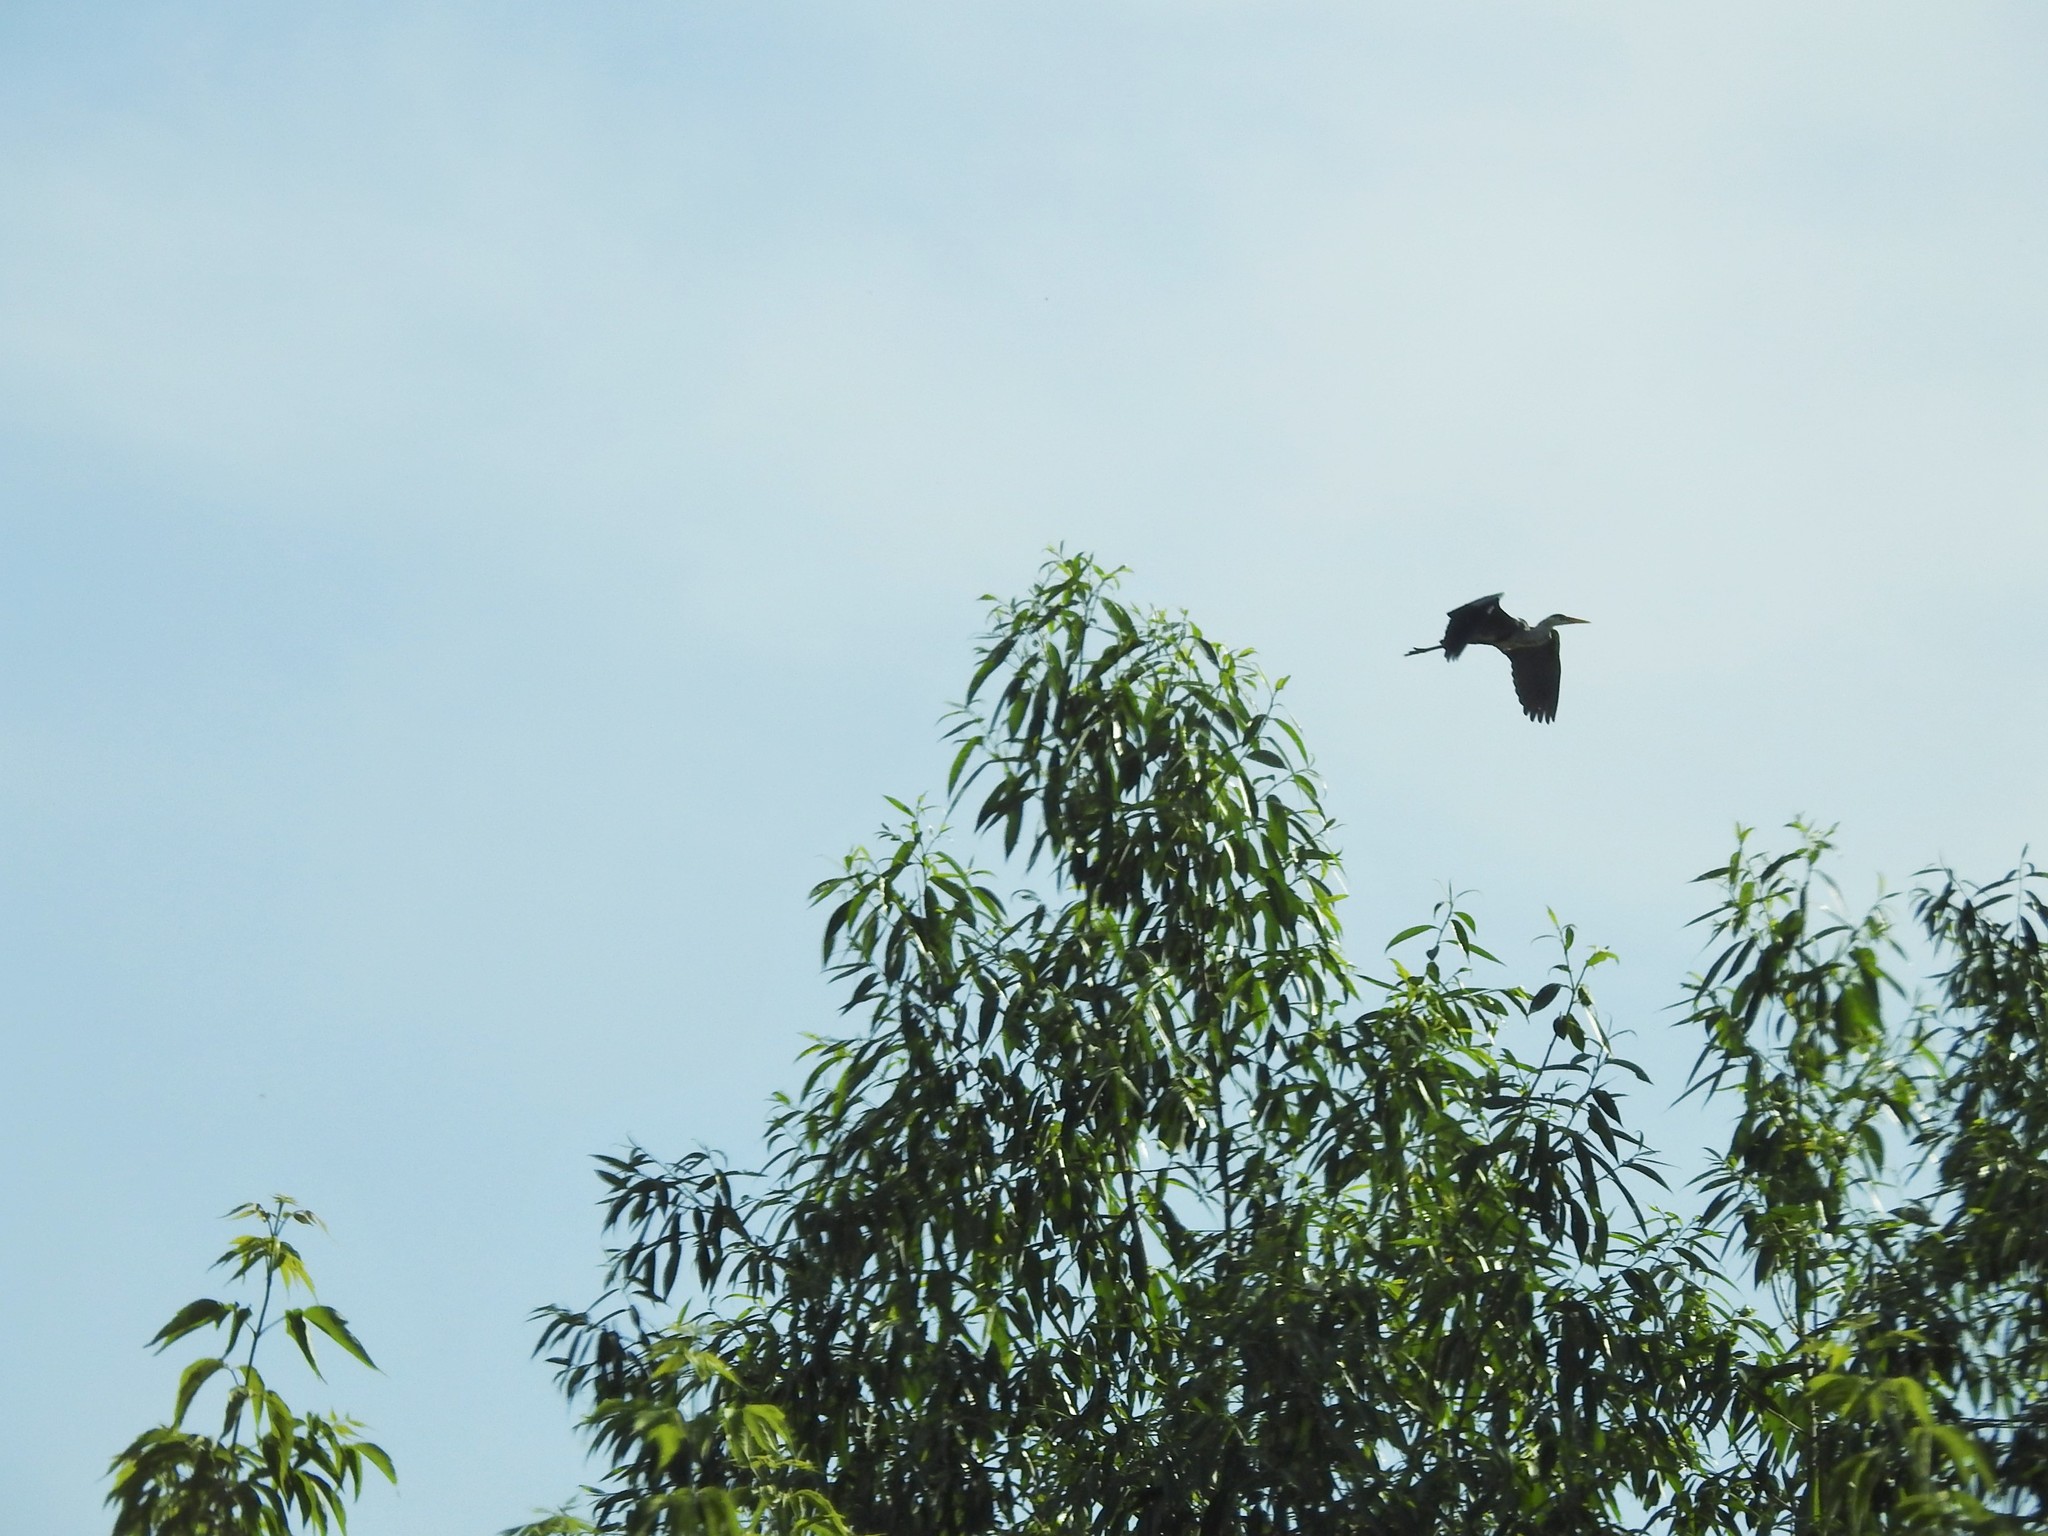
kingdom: Animalia
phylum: Chordata
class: Aves
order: Pelecaniformes
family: Ardeidae
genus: Ardea
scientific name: Ardea cinerea
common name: Grey heron
